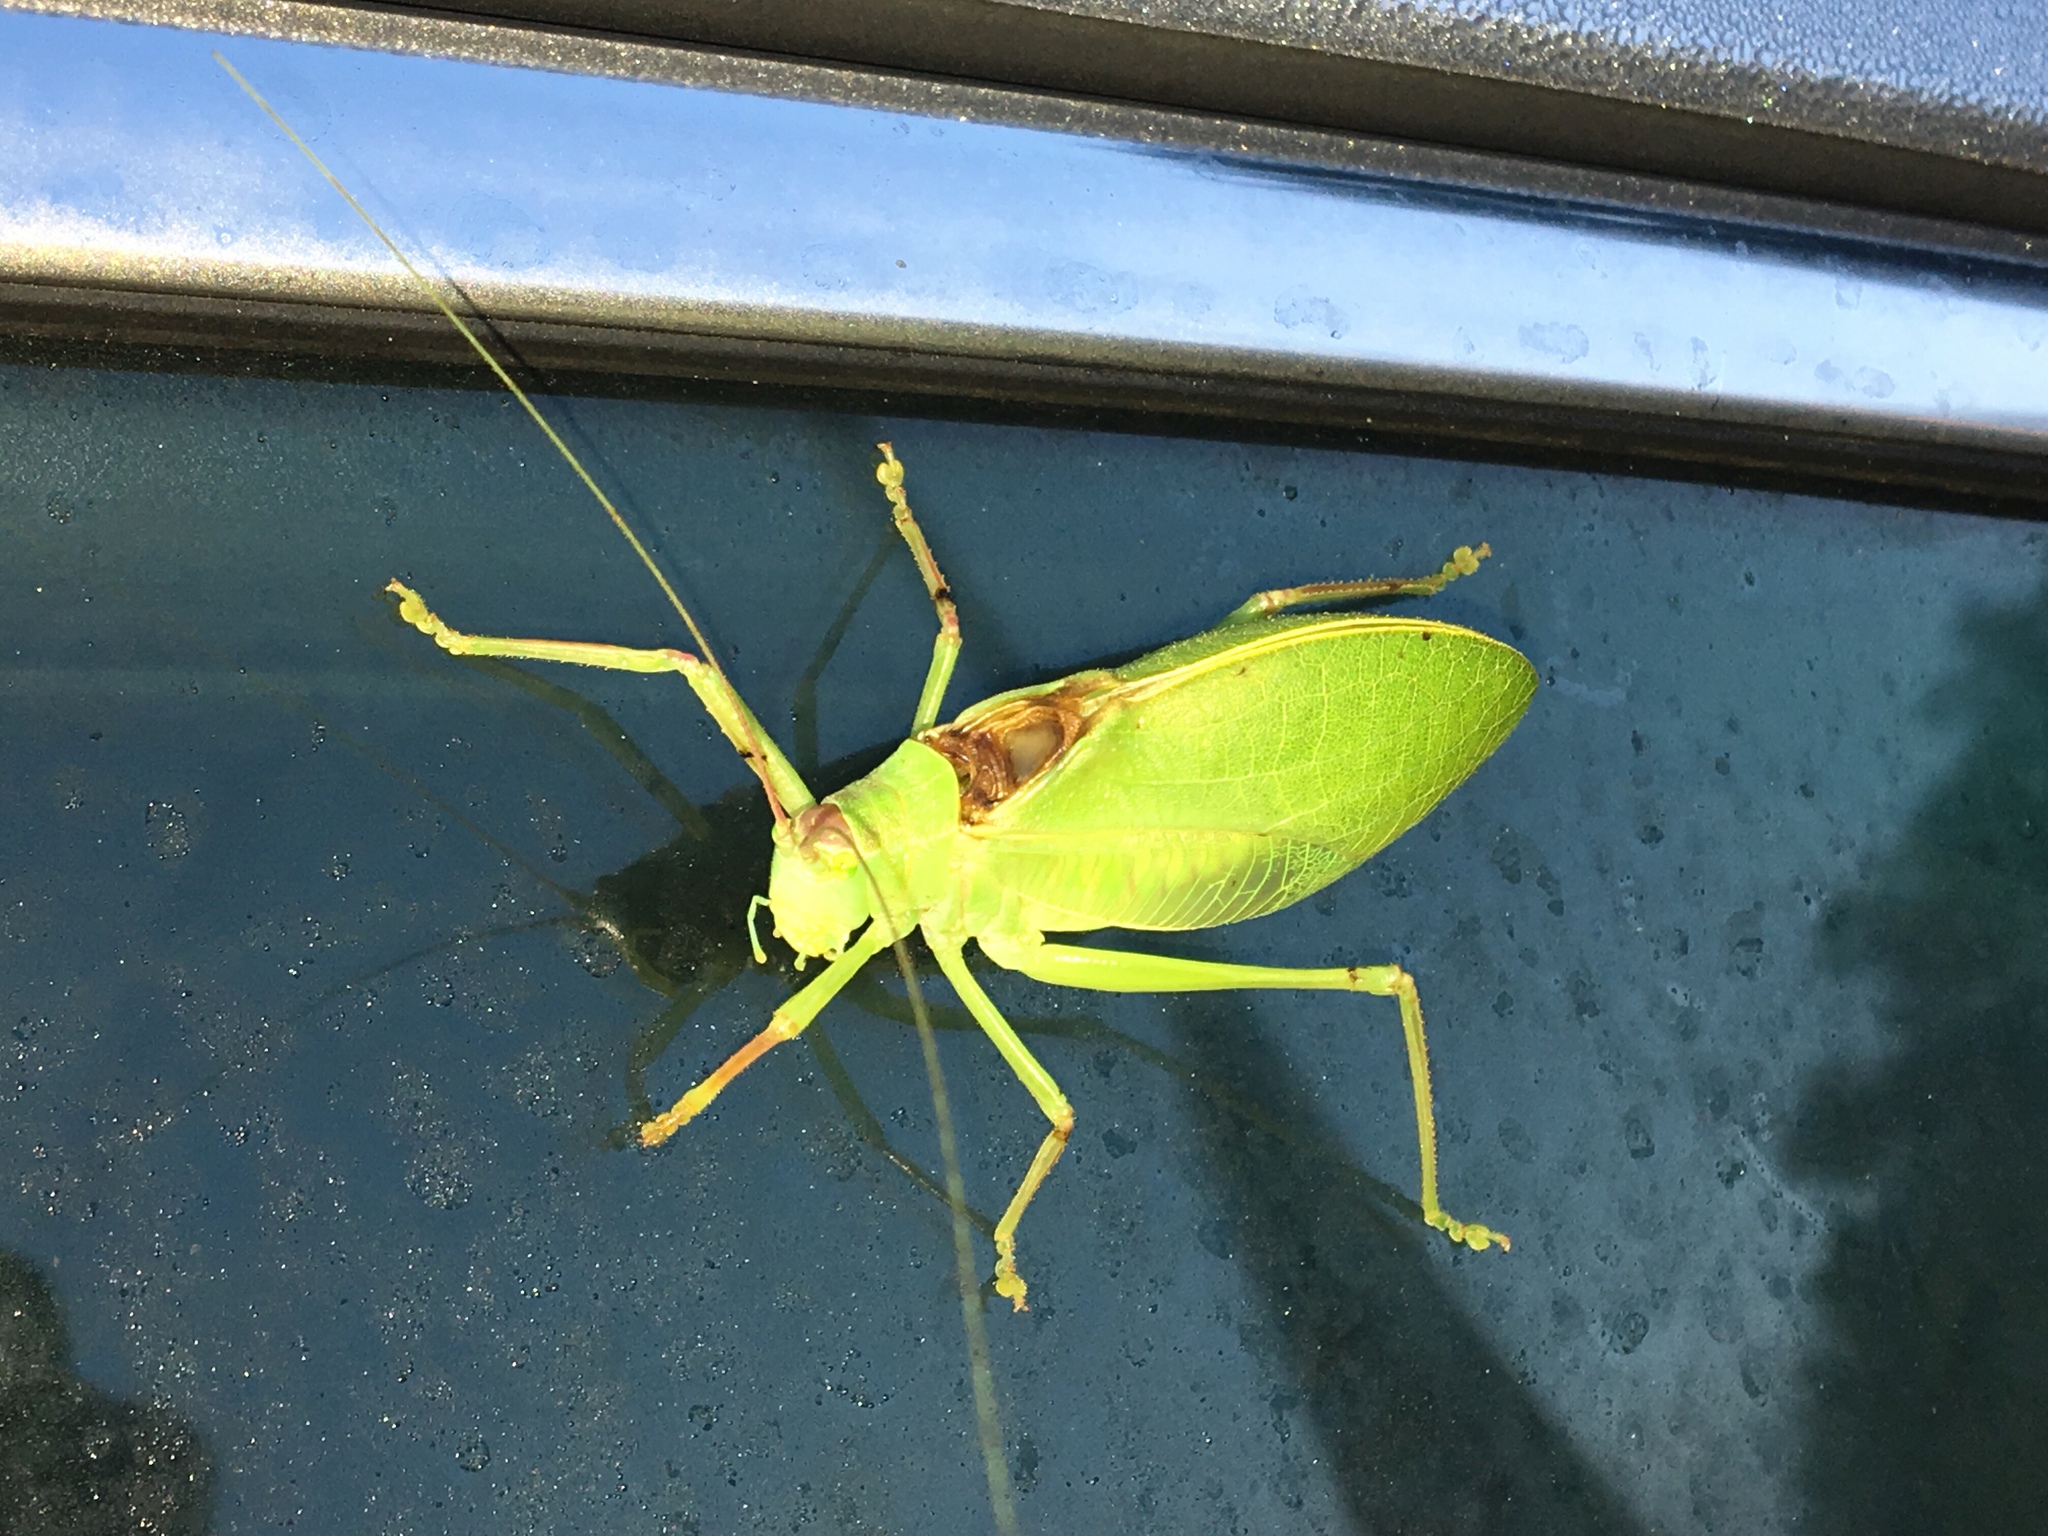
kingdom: Animalia
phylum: Arthropoda
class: Insecta
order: Orthoptera
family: Tettigoniidae
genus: Pterophylla
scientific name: Pterophylla camellifolia
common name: Common true katydid
